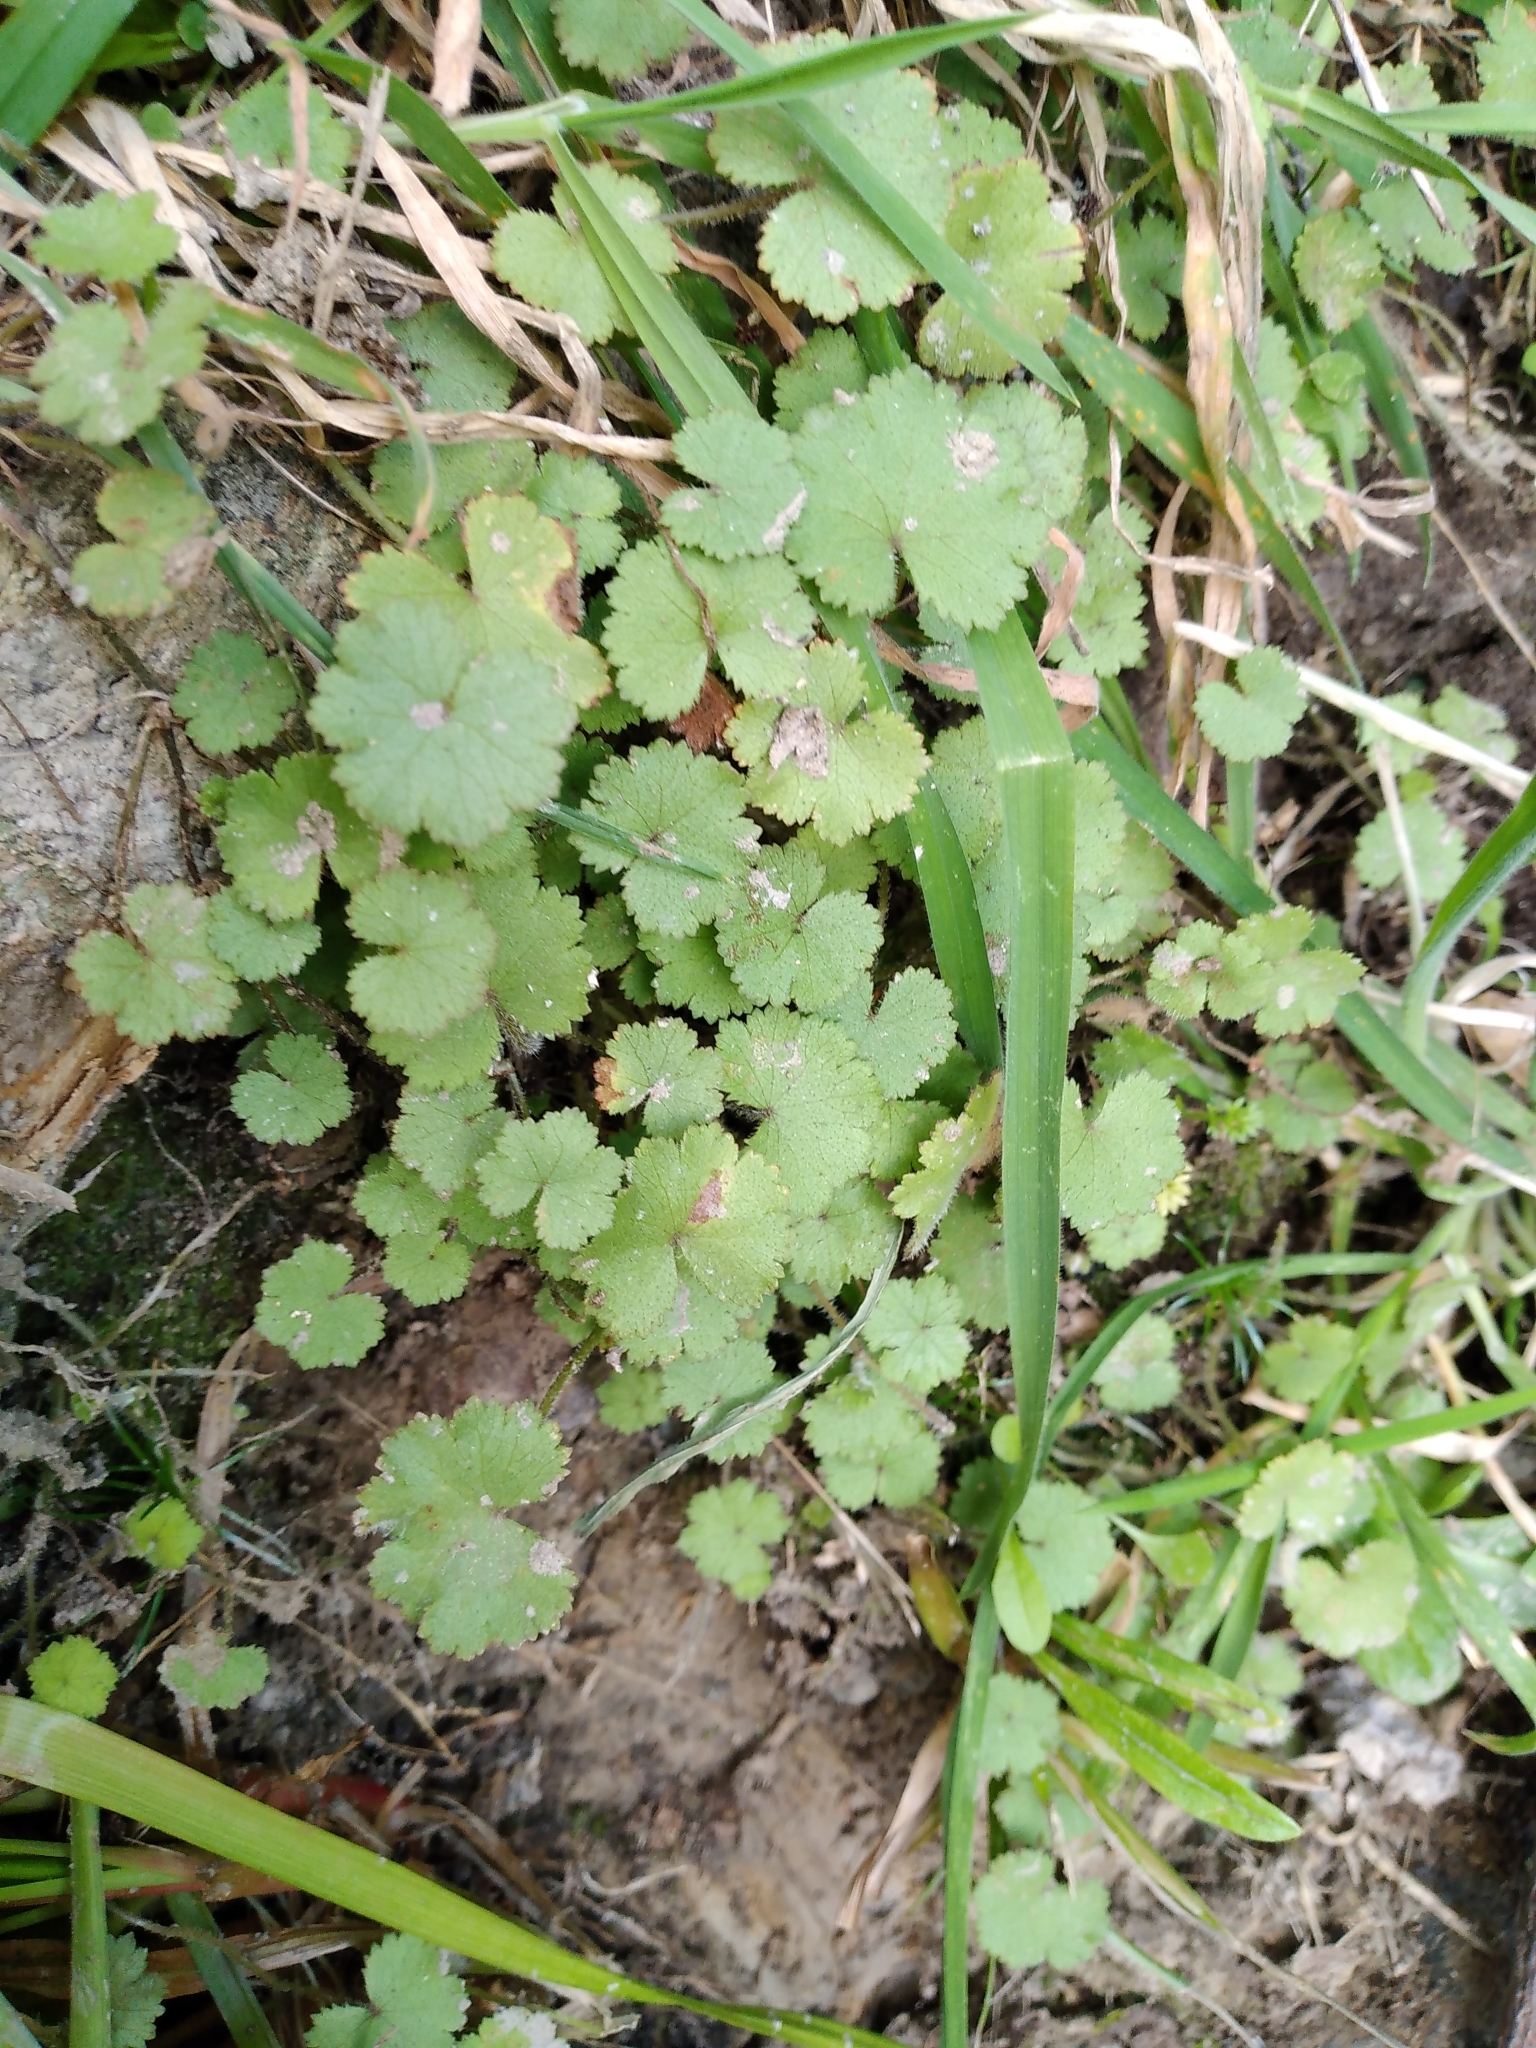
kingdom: Plantae
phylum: Tracheophyta
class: Magnoliopsida
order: Apiales
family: Araliaceae
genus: Hydrocotyle
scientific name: Hydrocotyle moschata
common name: Hairy pennywort
